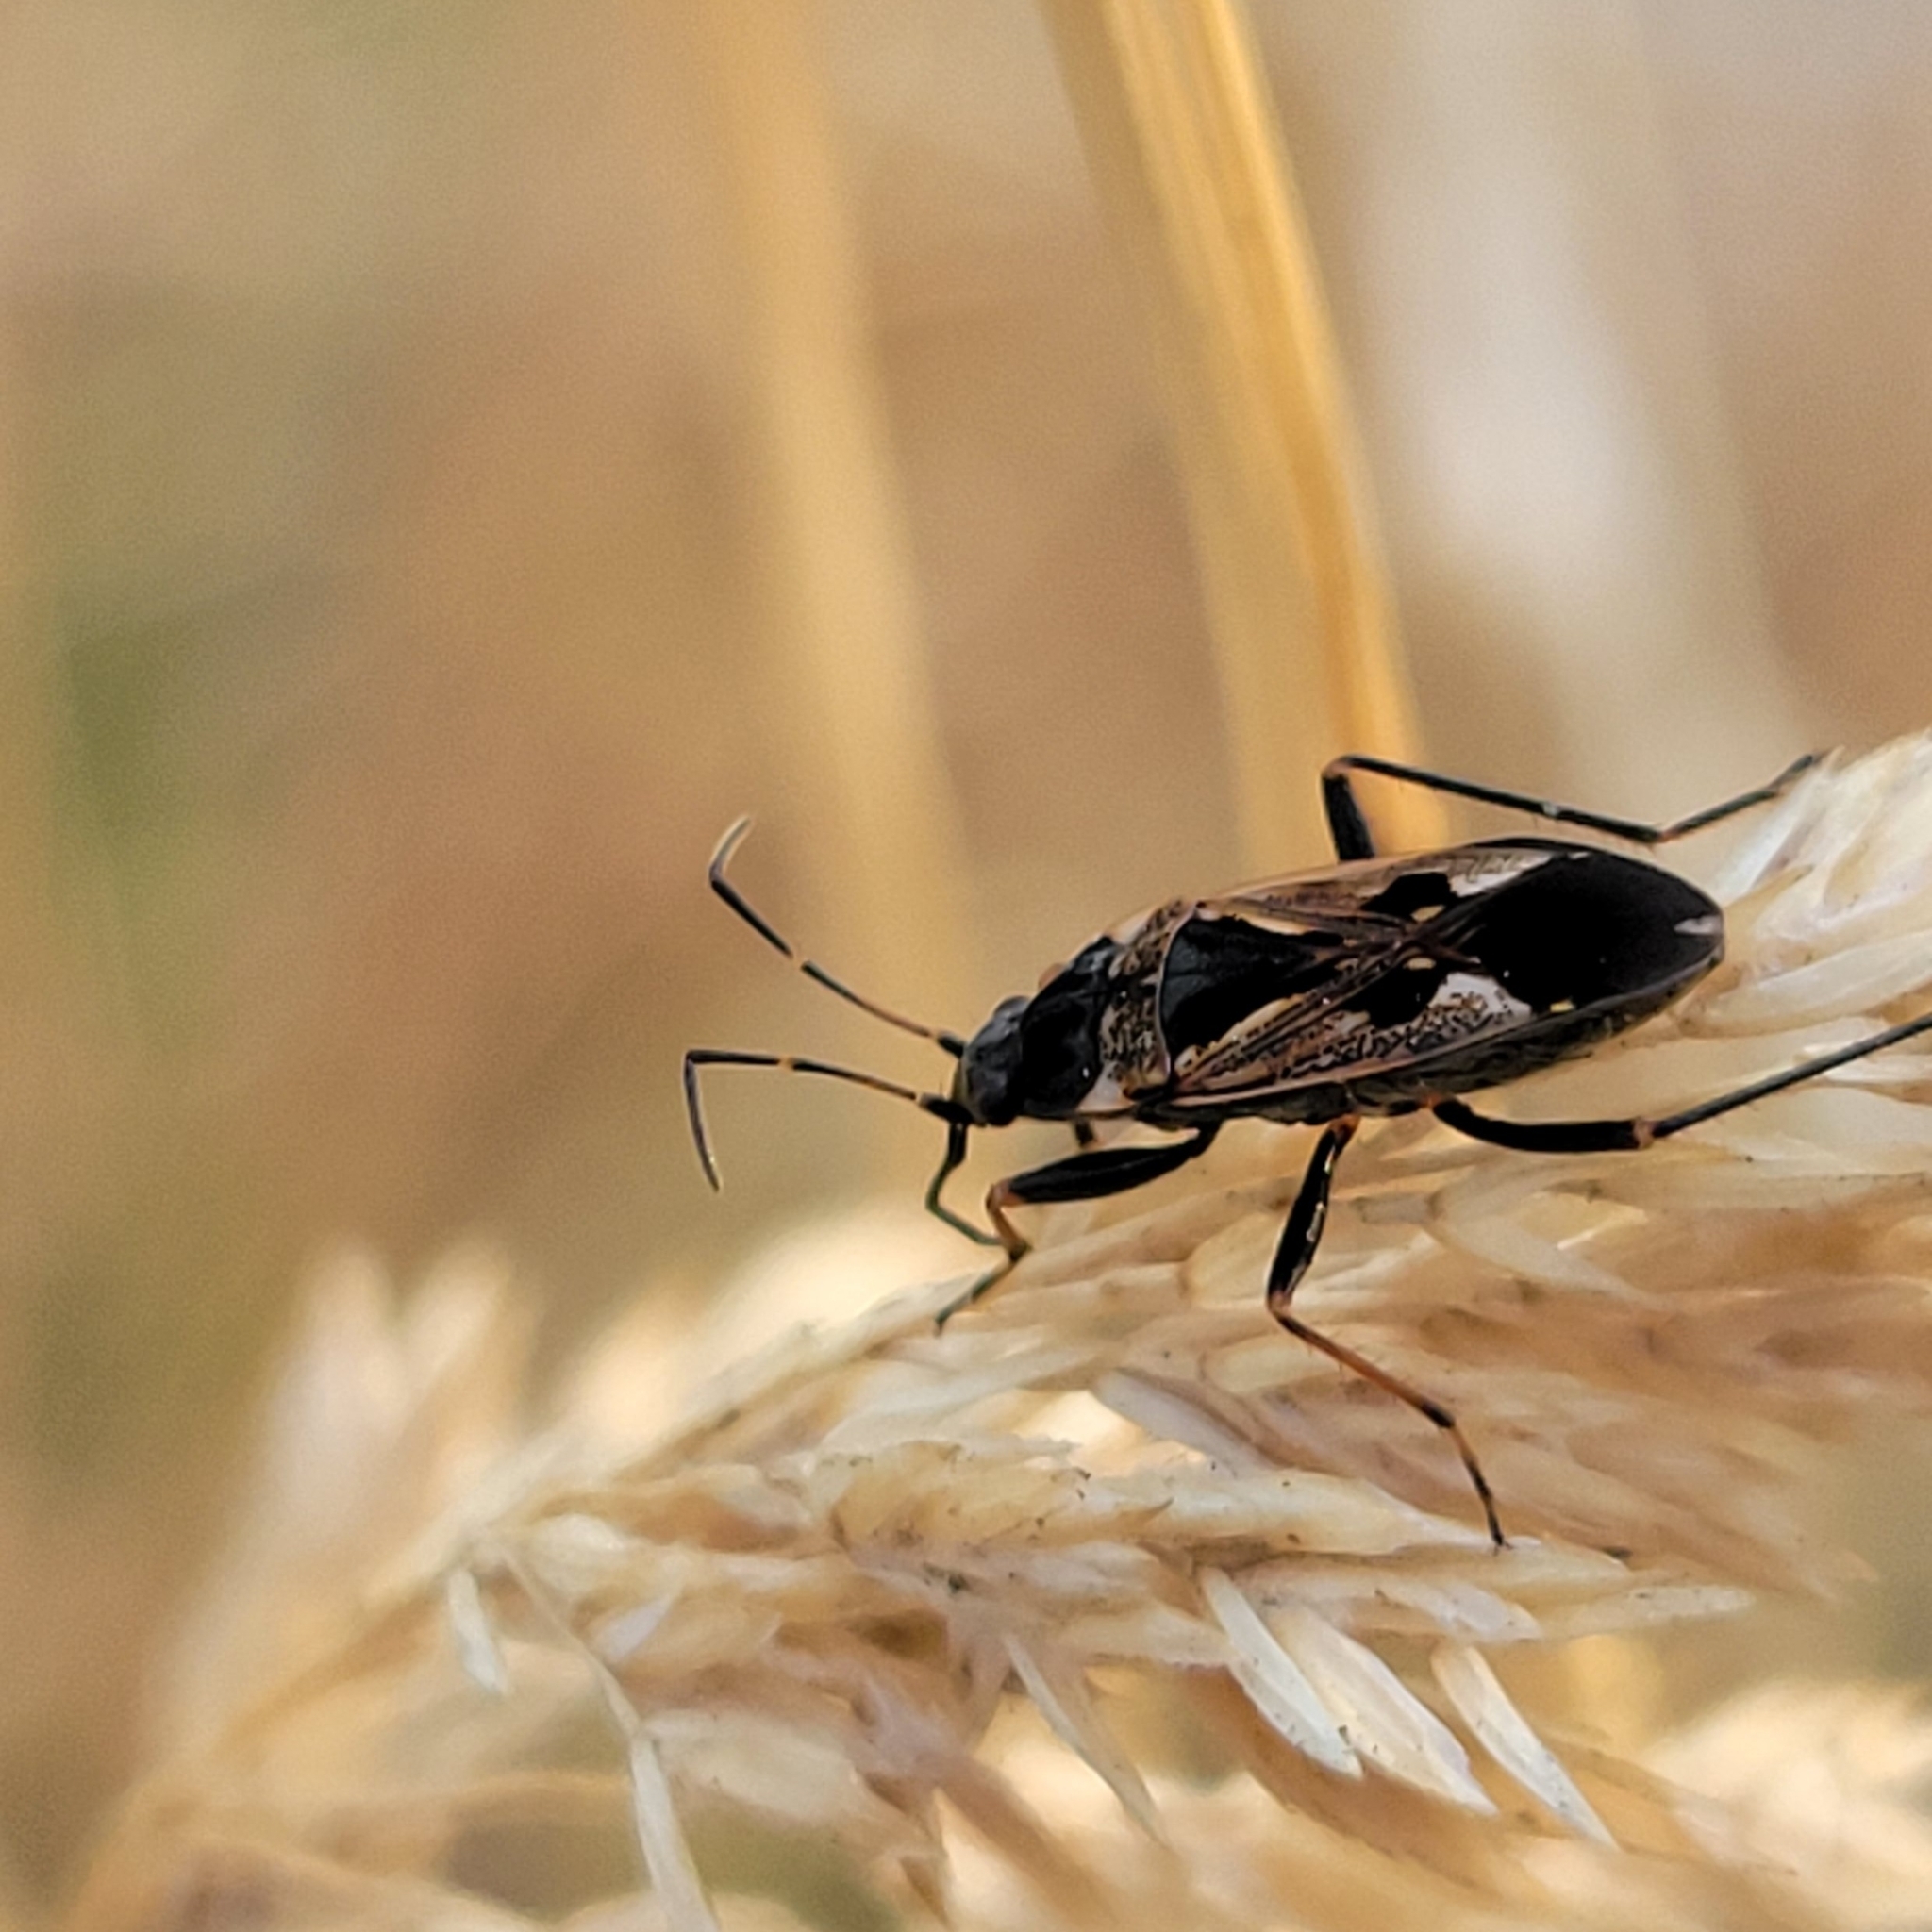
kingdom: Animalia
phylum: Arthropoda
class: Insecta
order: Hemiptera
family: Rhyparochromidae
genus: Rhyparochromus
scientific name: Rhyparochromus vulgaris
